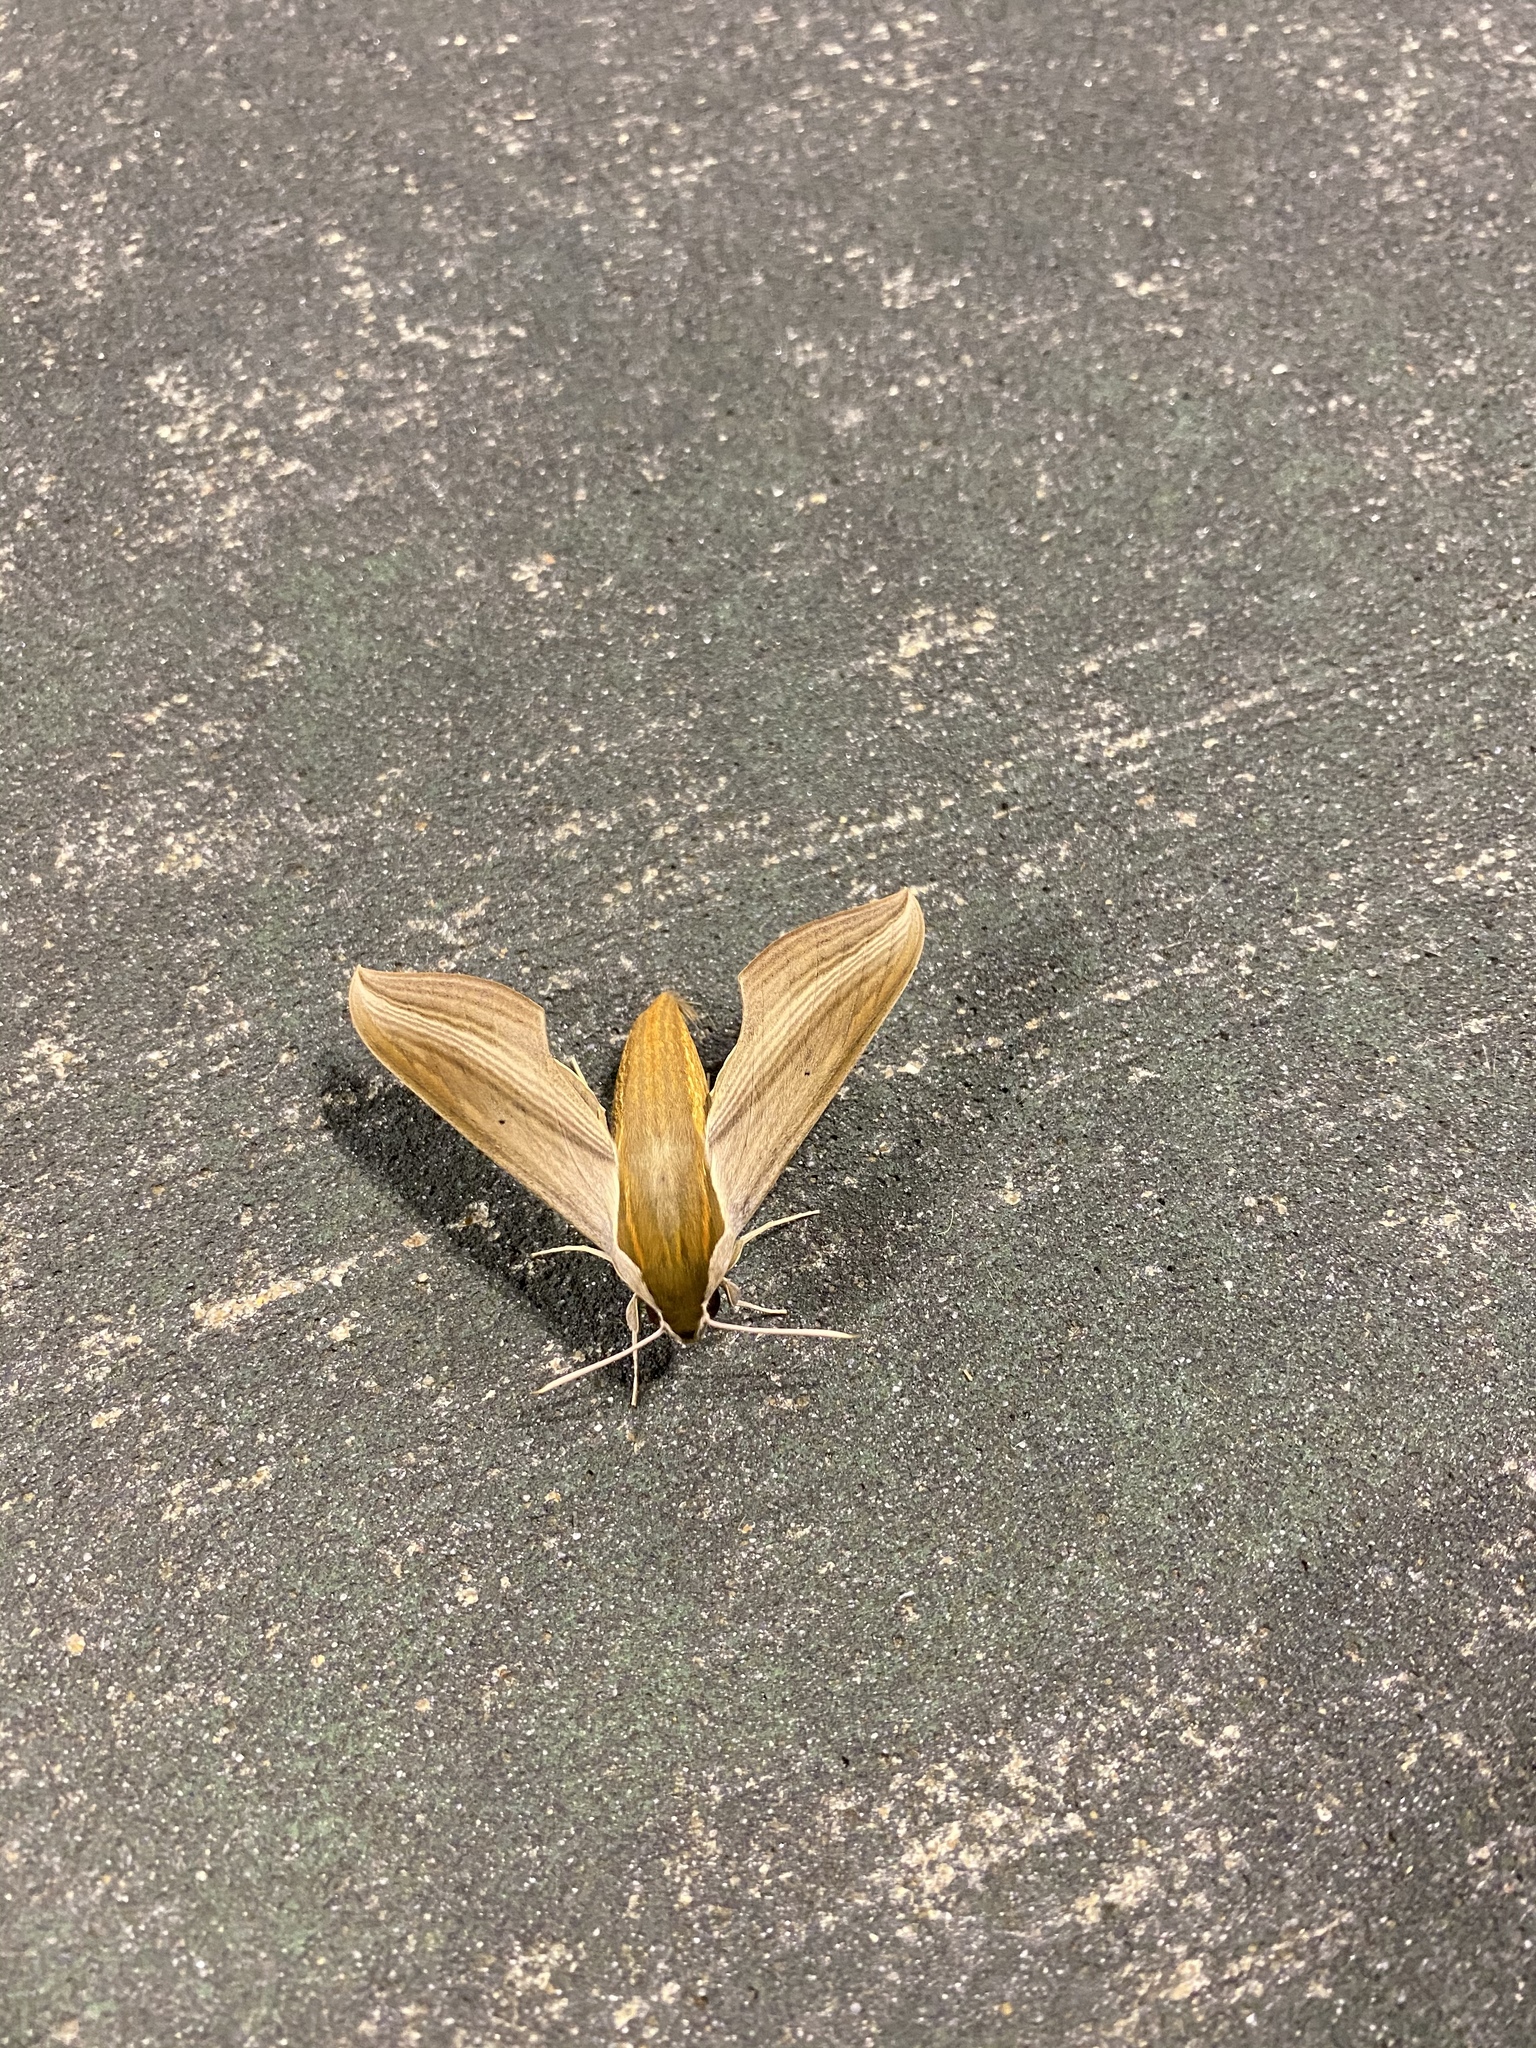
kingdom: Animalia
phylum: Arthropoda
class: Insecta
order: Lepidoptera
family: Sphingidae
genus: Xylophanes
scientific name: Xylophanes tersa
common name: Tersa sphinx
